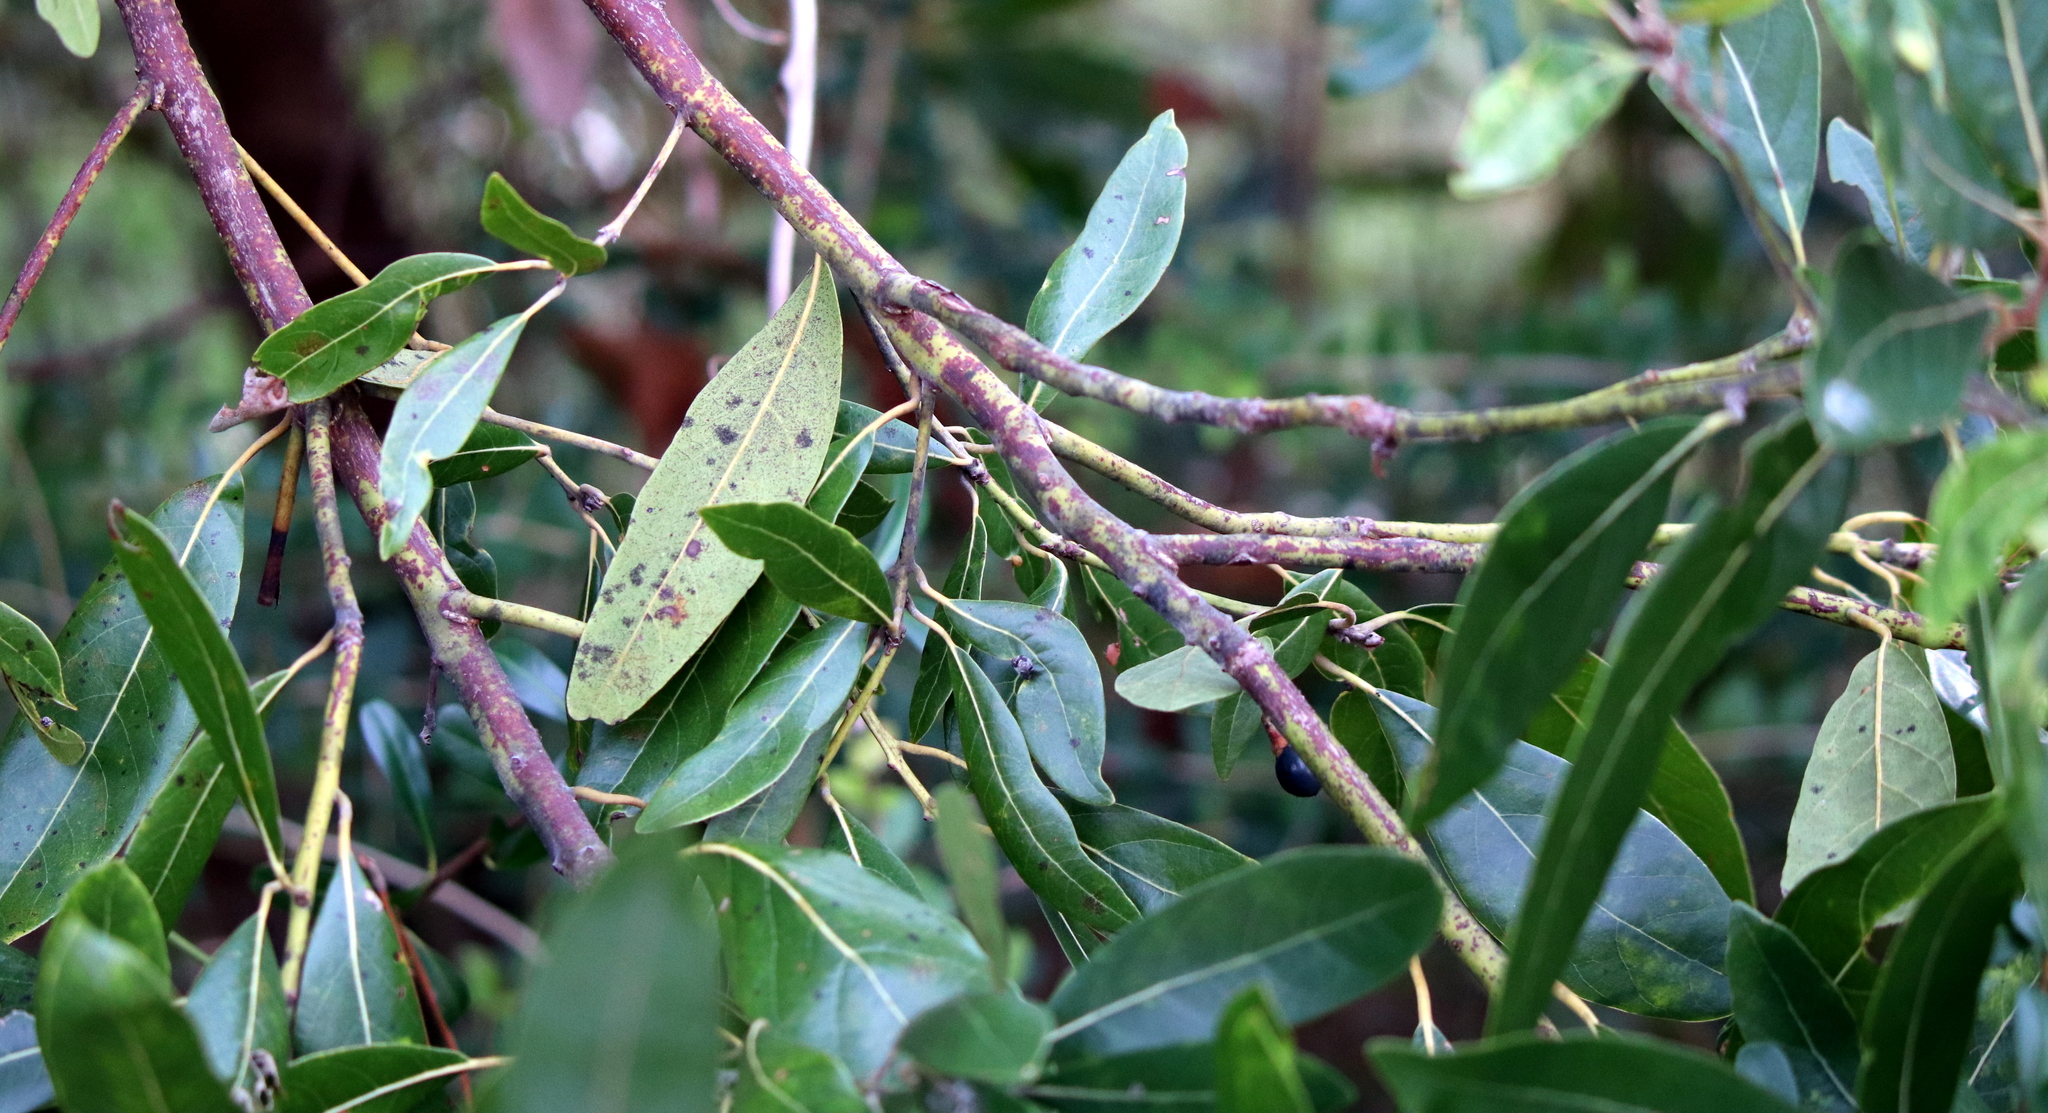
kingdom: Plantae
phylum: Tracheophyta
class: Magnoliopsida
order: Laurales
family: Lauraceae
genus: Persea
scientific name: Persea palustris
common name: Swampbay
